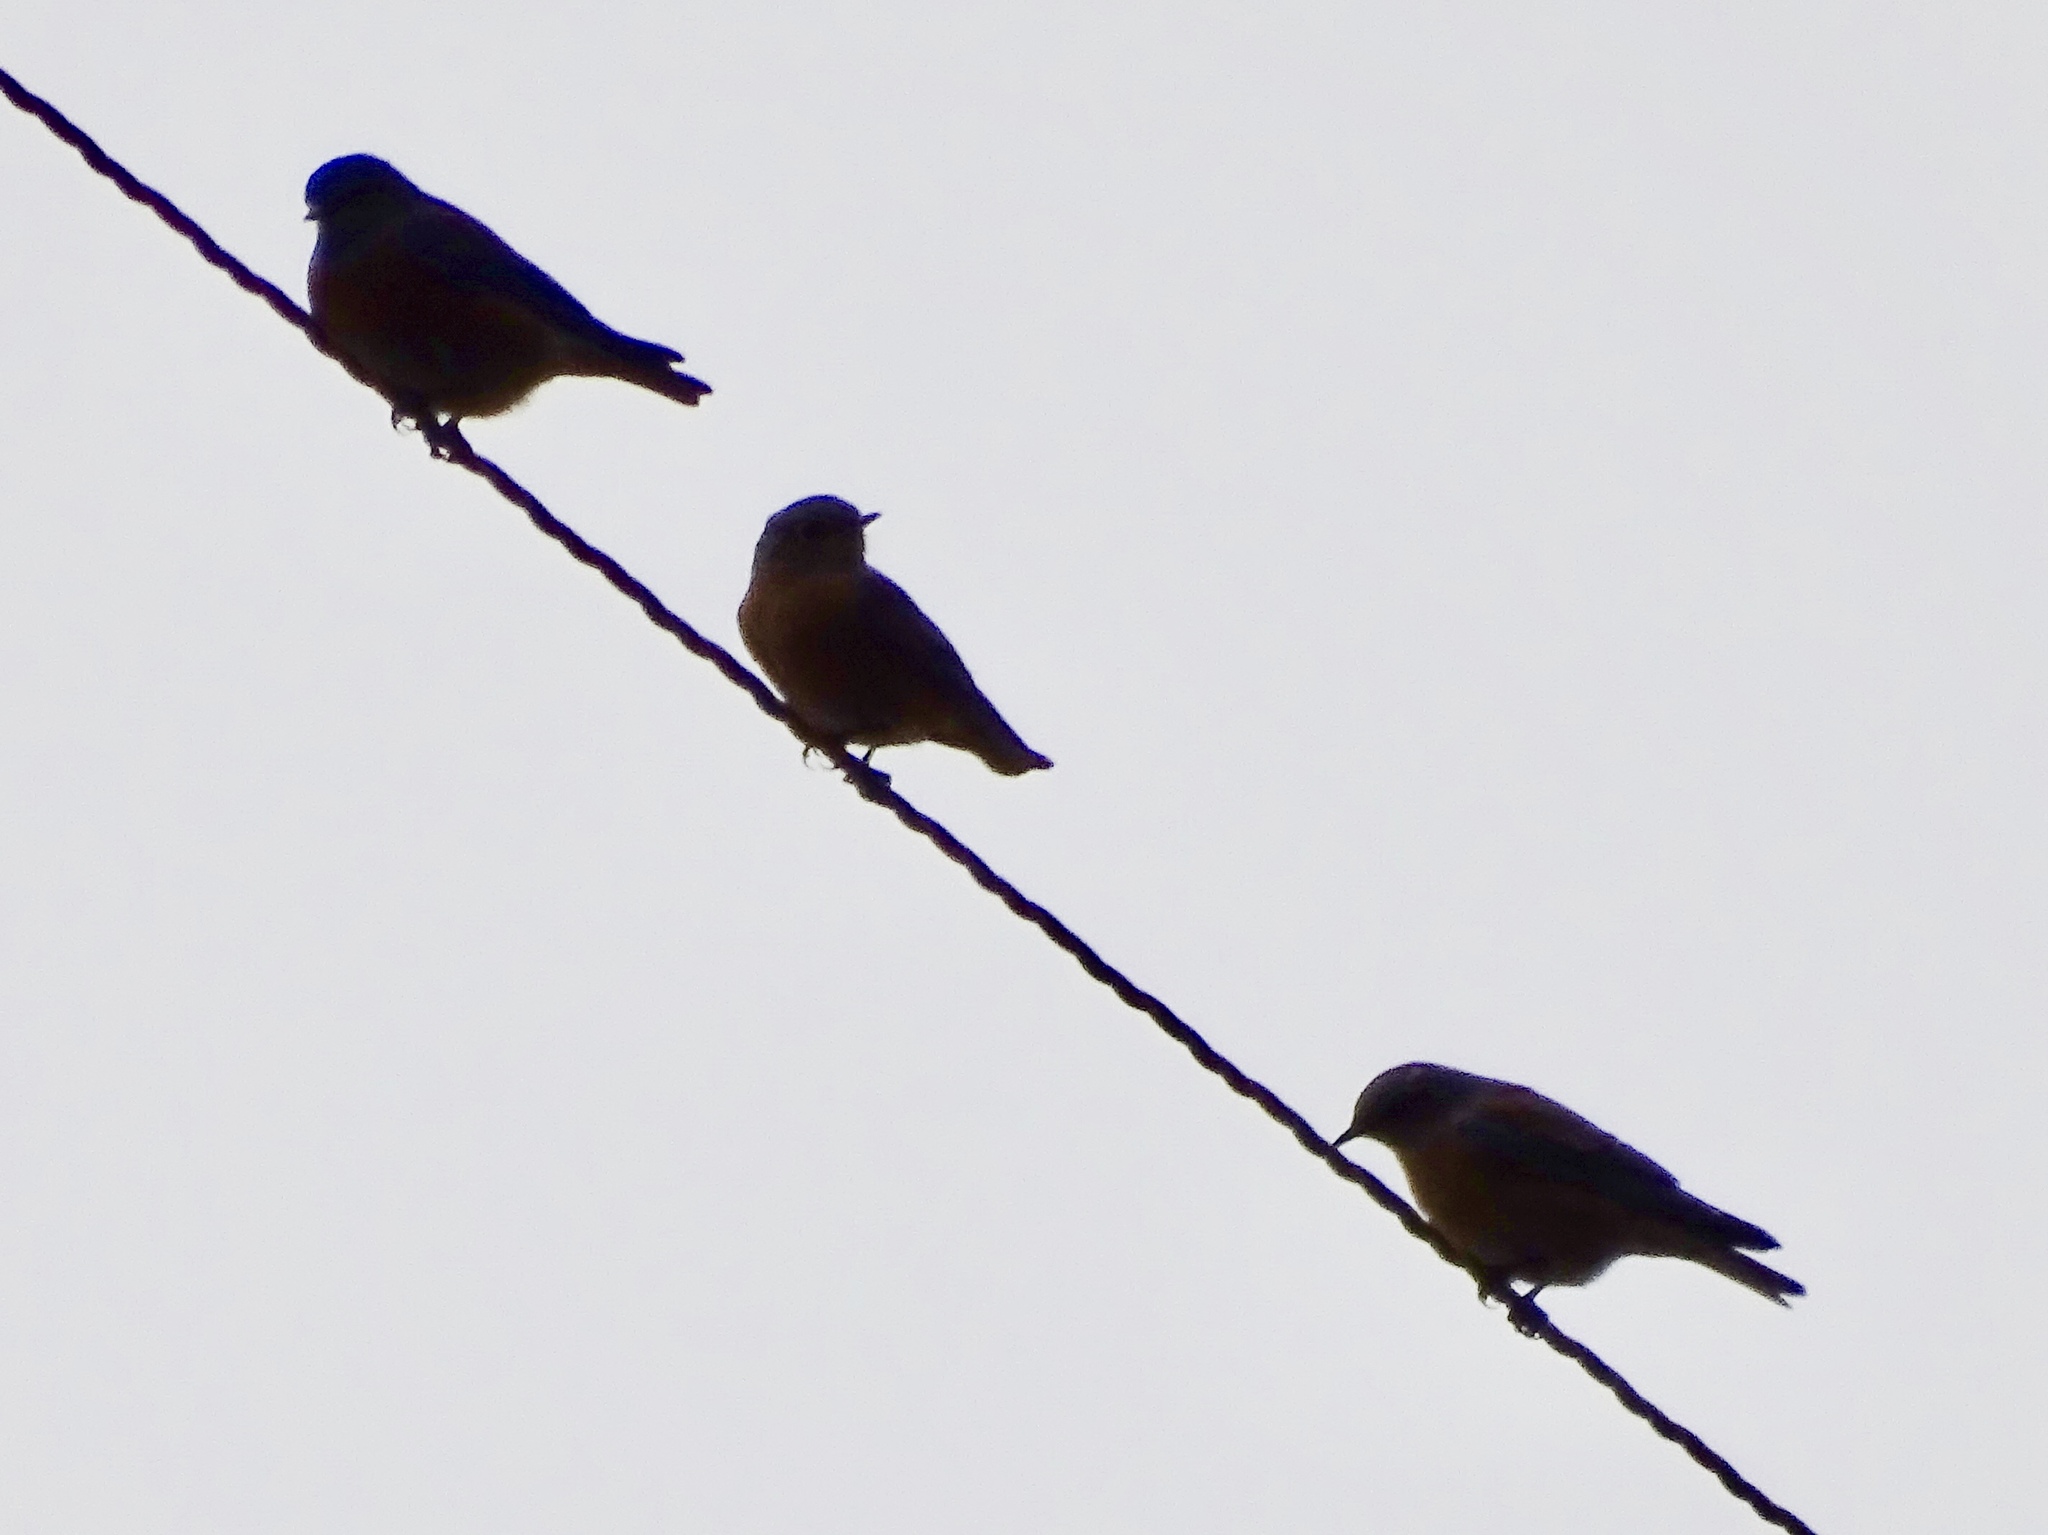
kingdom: Animalia
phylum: Chordata
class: Aves
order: Passeriformes
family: Turdidae
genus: Sialia
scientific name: Sialia mexicana
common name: Western bluebird
